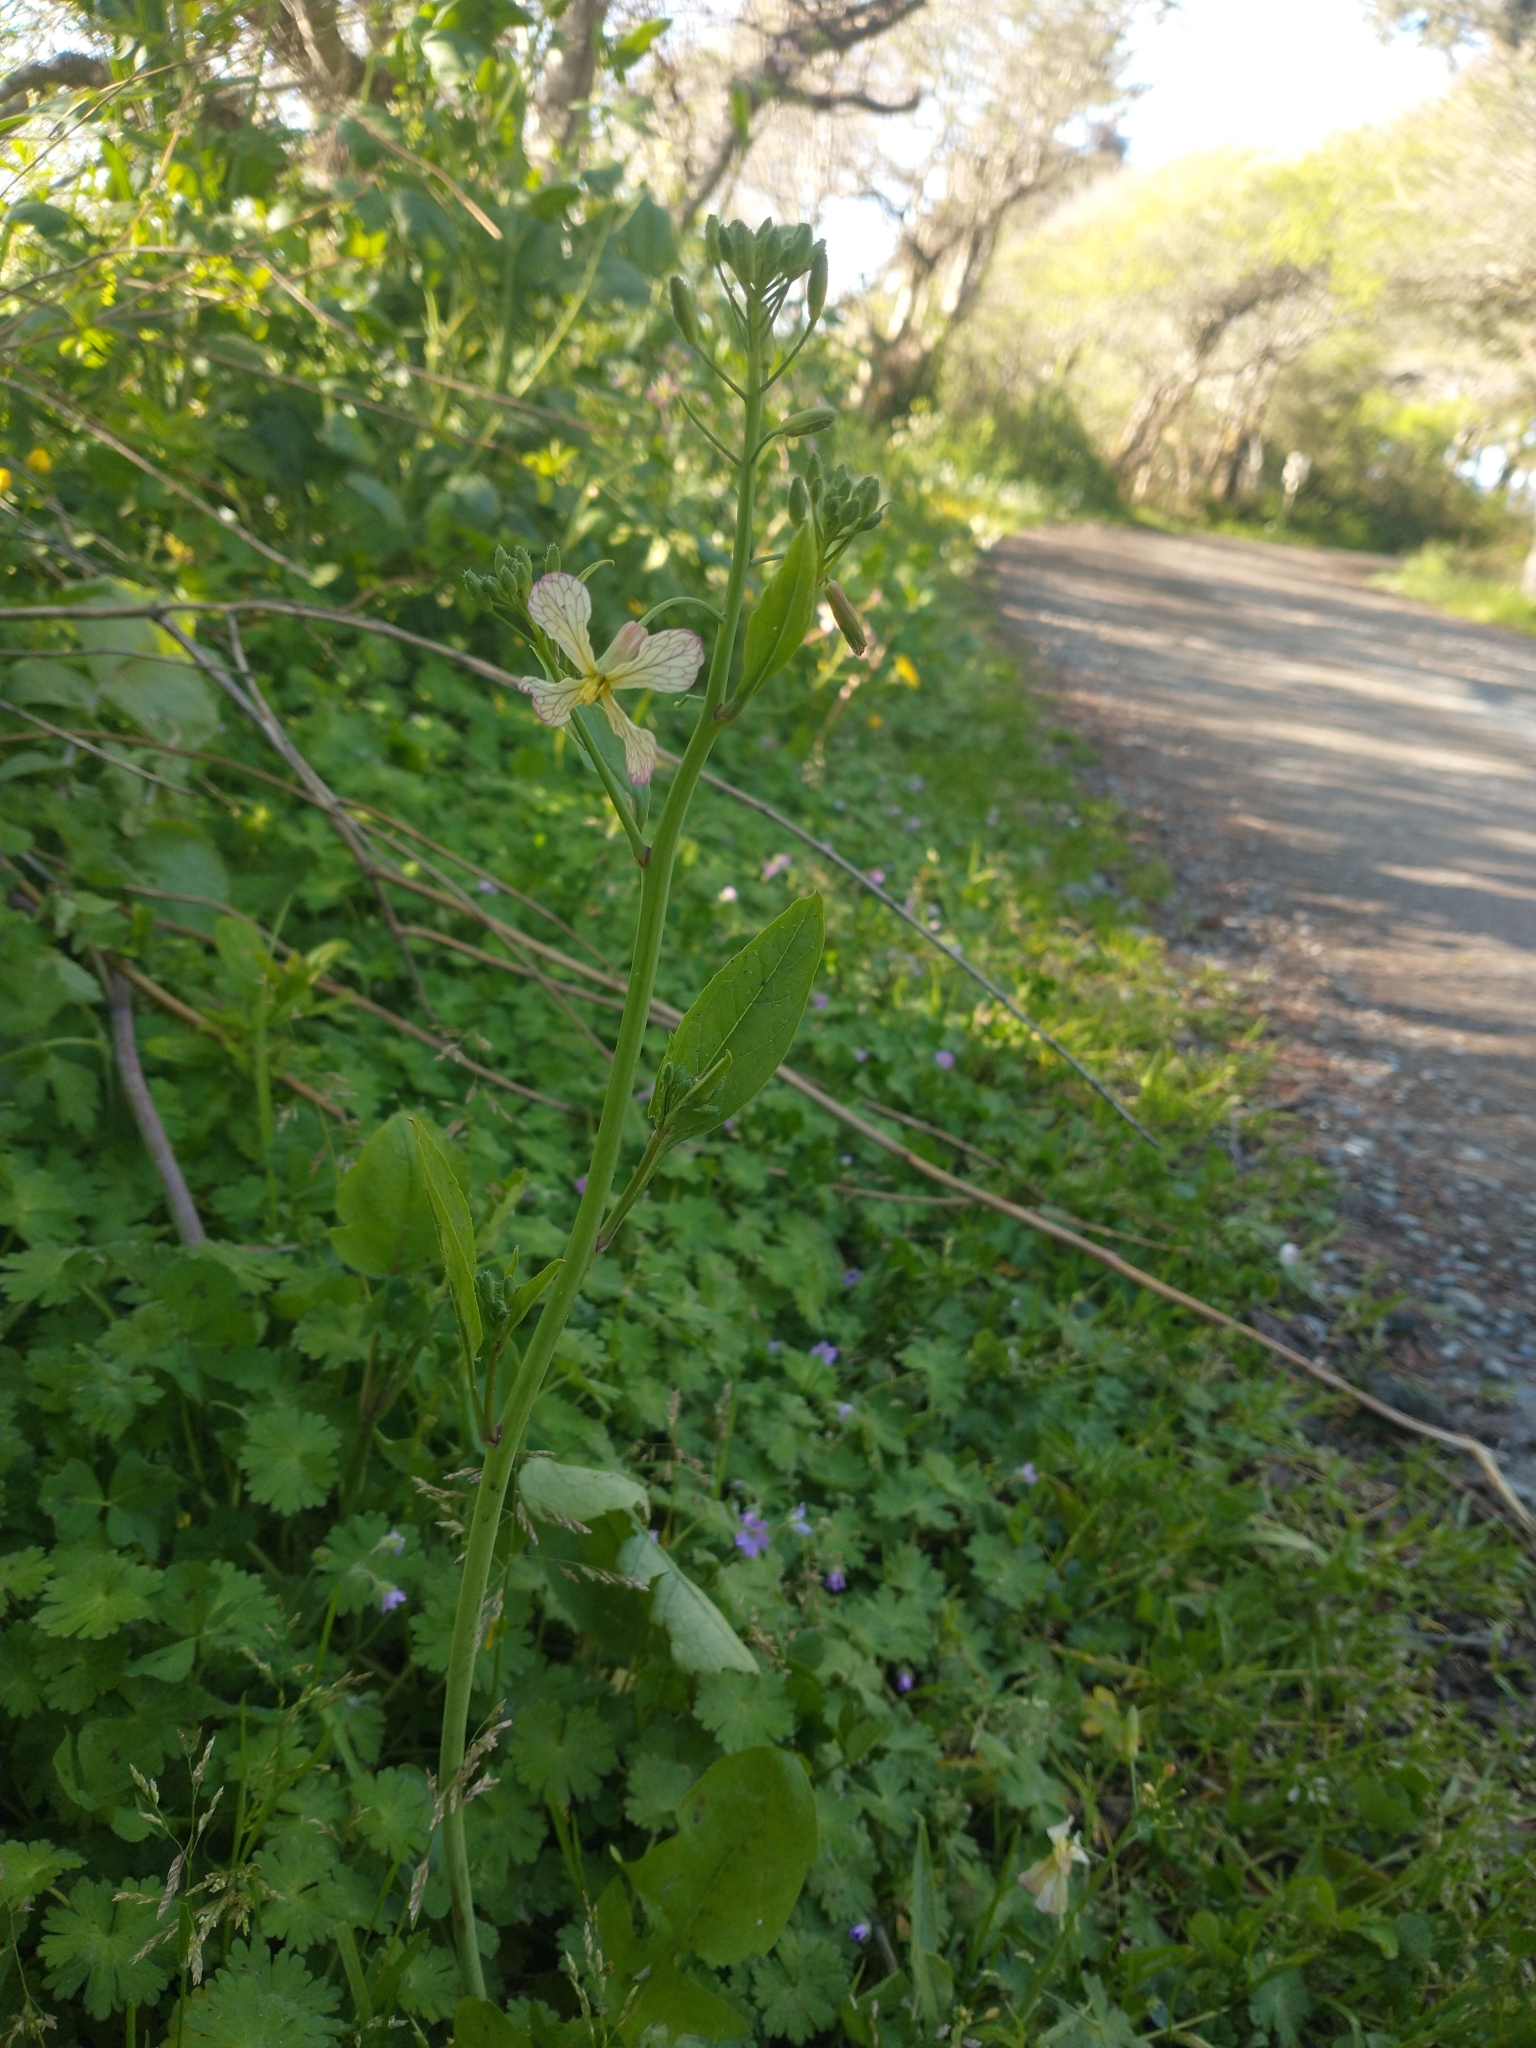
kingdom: Plantae
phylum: Tracheophyta
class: Magnoliopsida
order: Brassicales
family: Brassicaceae
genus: Raphanus
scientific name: Raphanus sativus
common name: Cultivated radish
